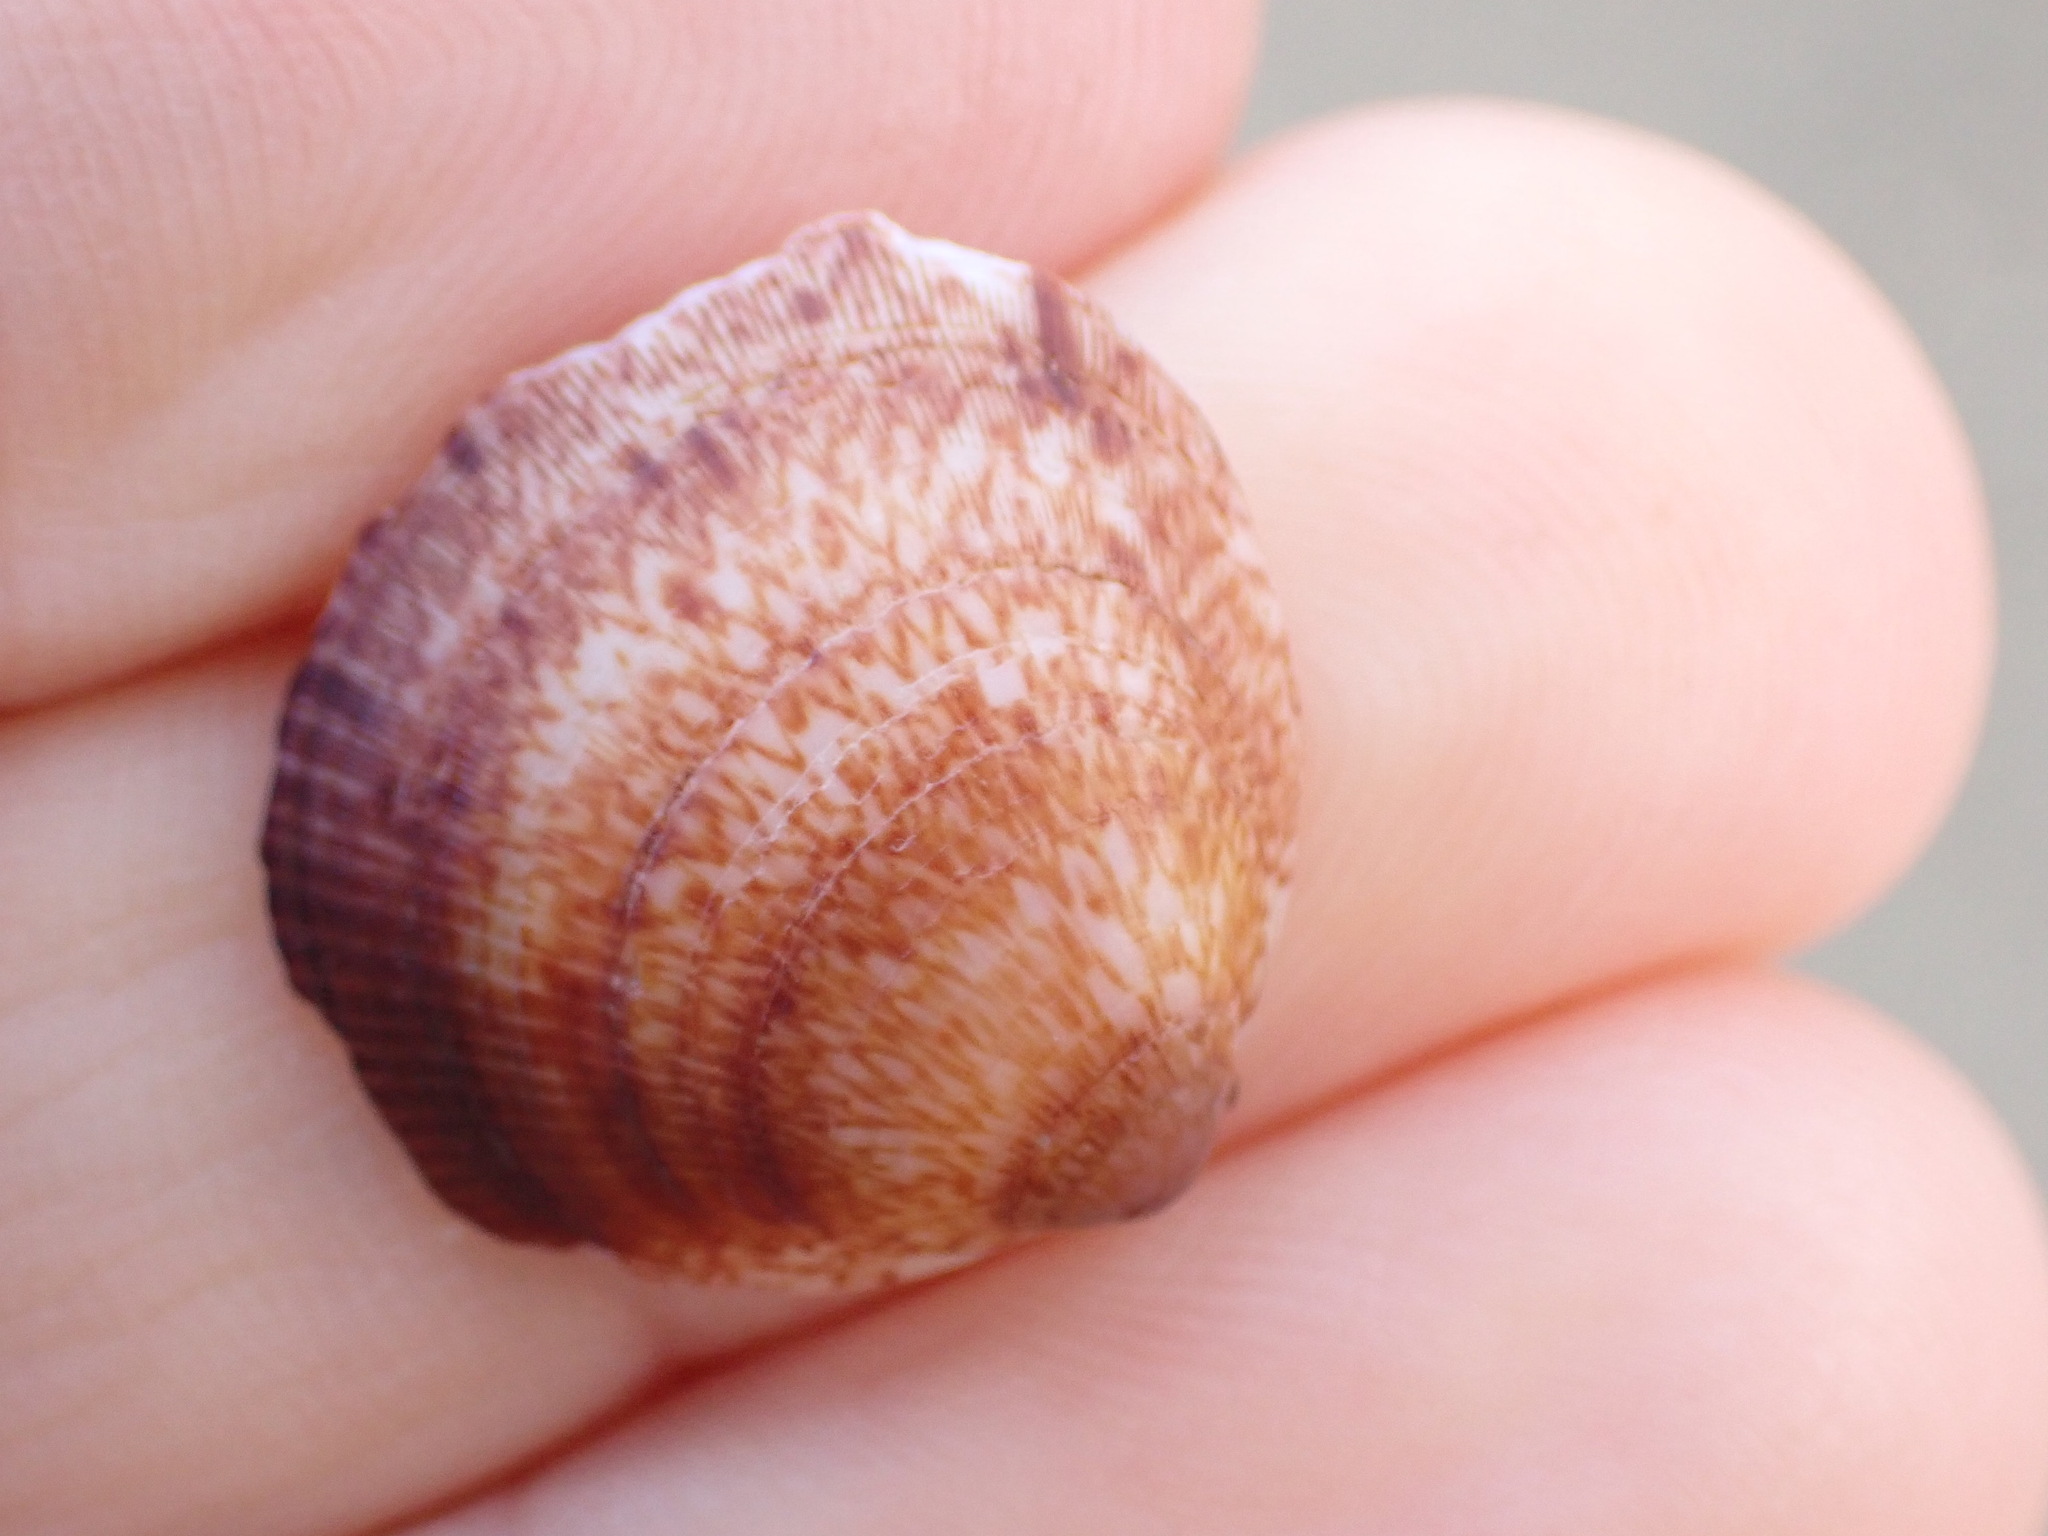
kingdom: Animalia
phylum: Mollusca
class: Bivalvia
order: Arcida
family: Glycymerididae
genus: Glycymeris
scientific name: Glycymeris modesta
